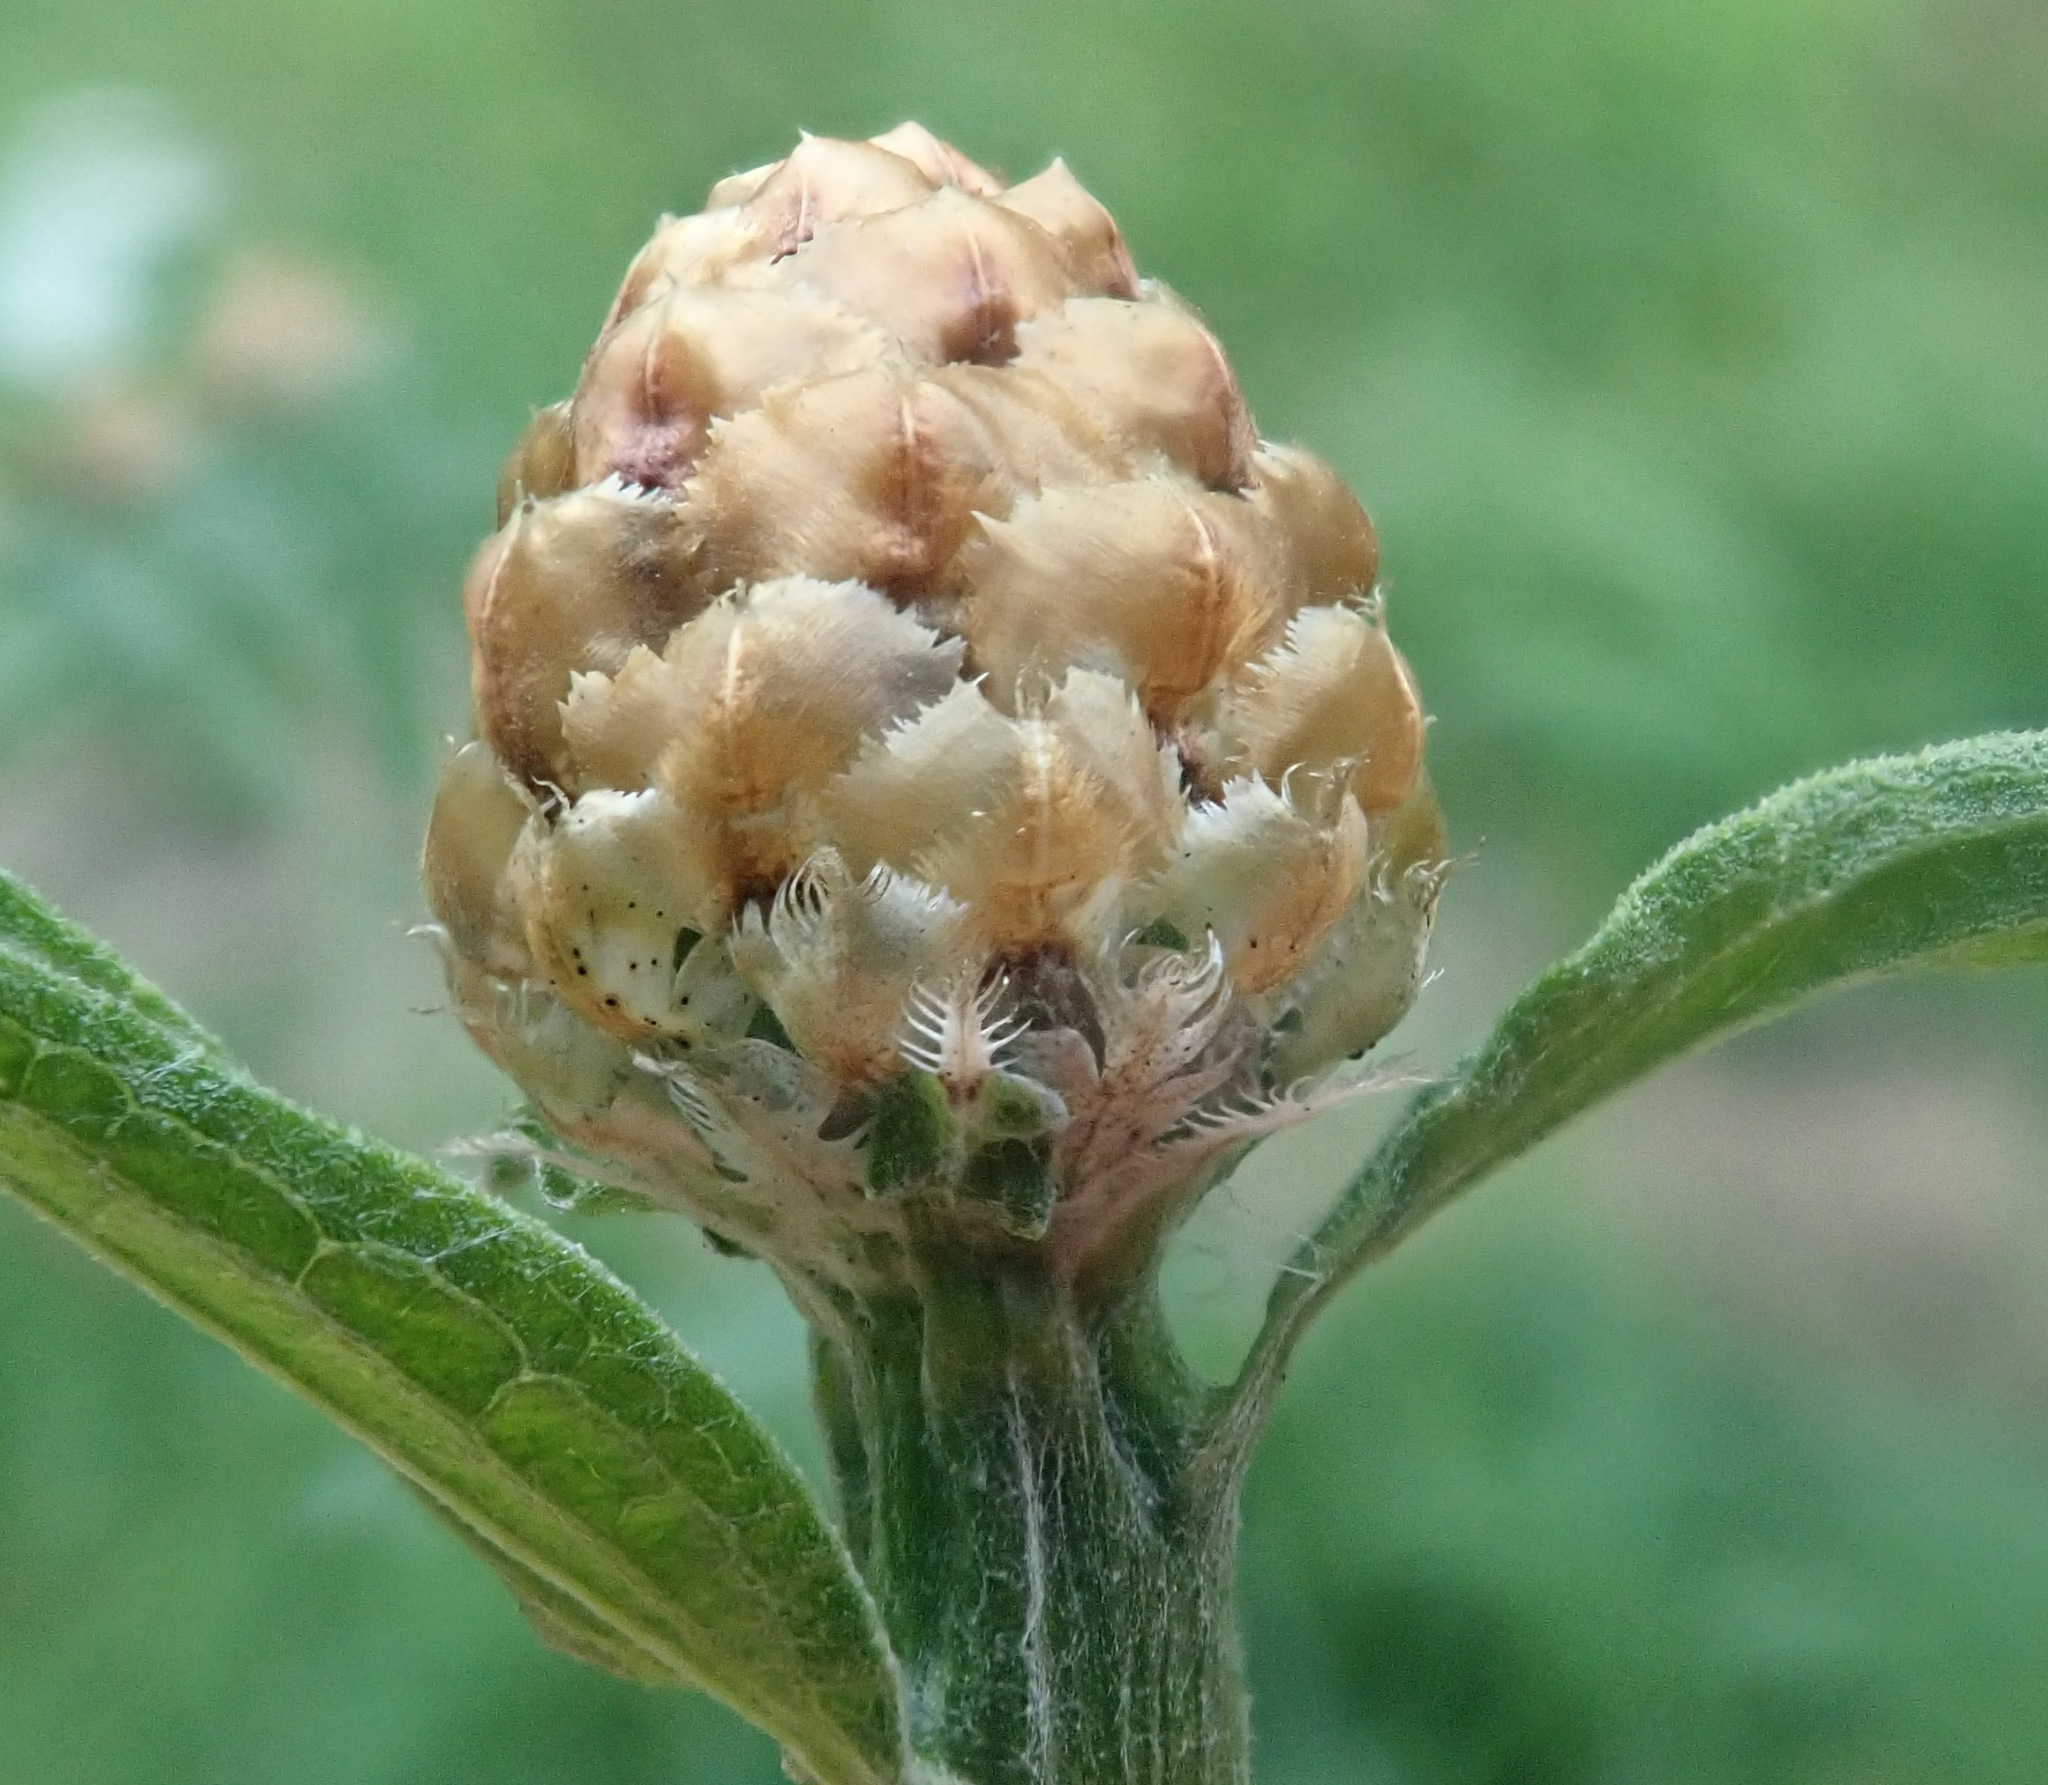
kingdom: Plantae
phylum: Tracheophyta
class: Magnoliopsida
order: Asterales
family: Asteraceae
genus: Centaurea
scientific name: Centaurea jacea
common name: Brown knapweed
